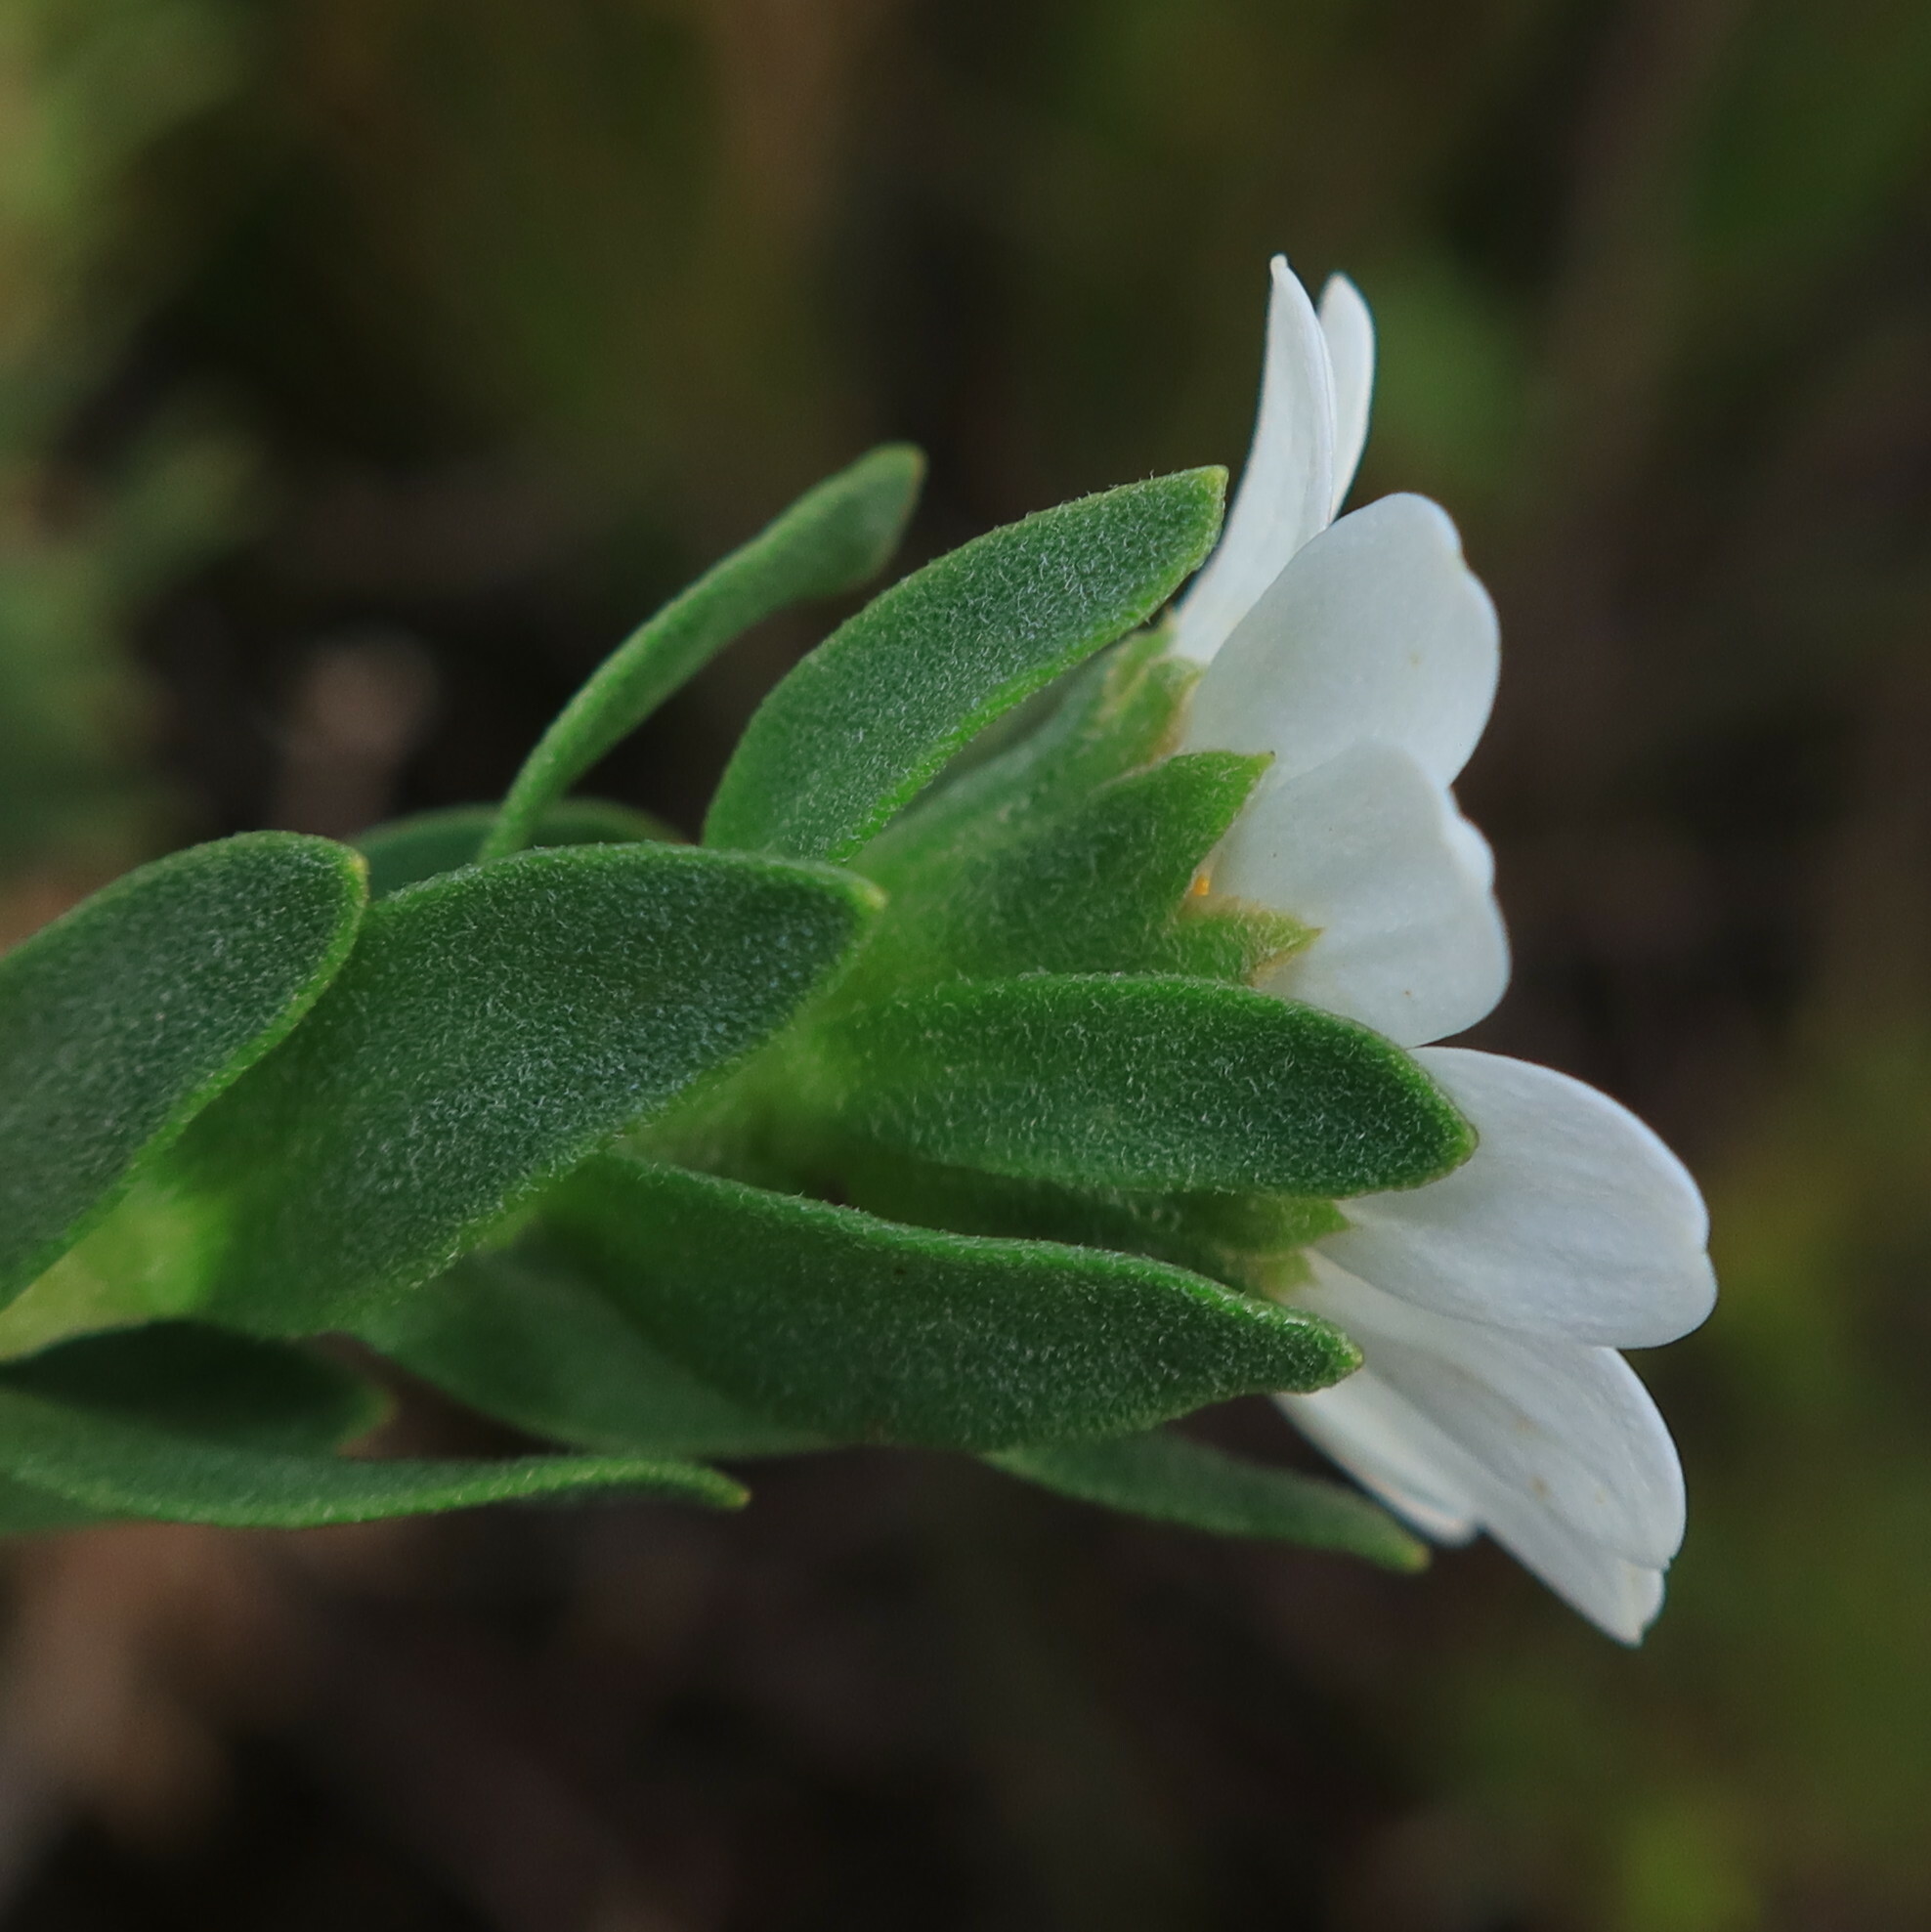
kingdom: Plantae
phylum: Tracheophyta
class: Magnoliopsida
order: Asterales
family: Asteraceae
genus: Osmitopsis
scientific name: Osmitopsis asteriscoides
